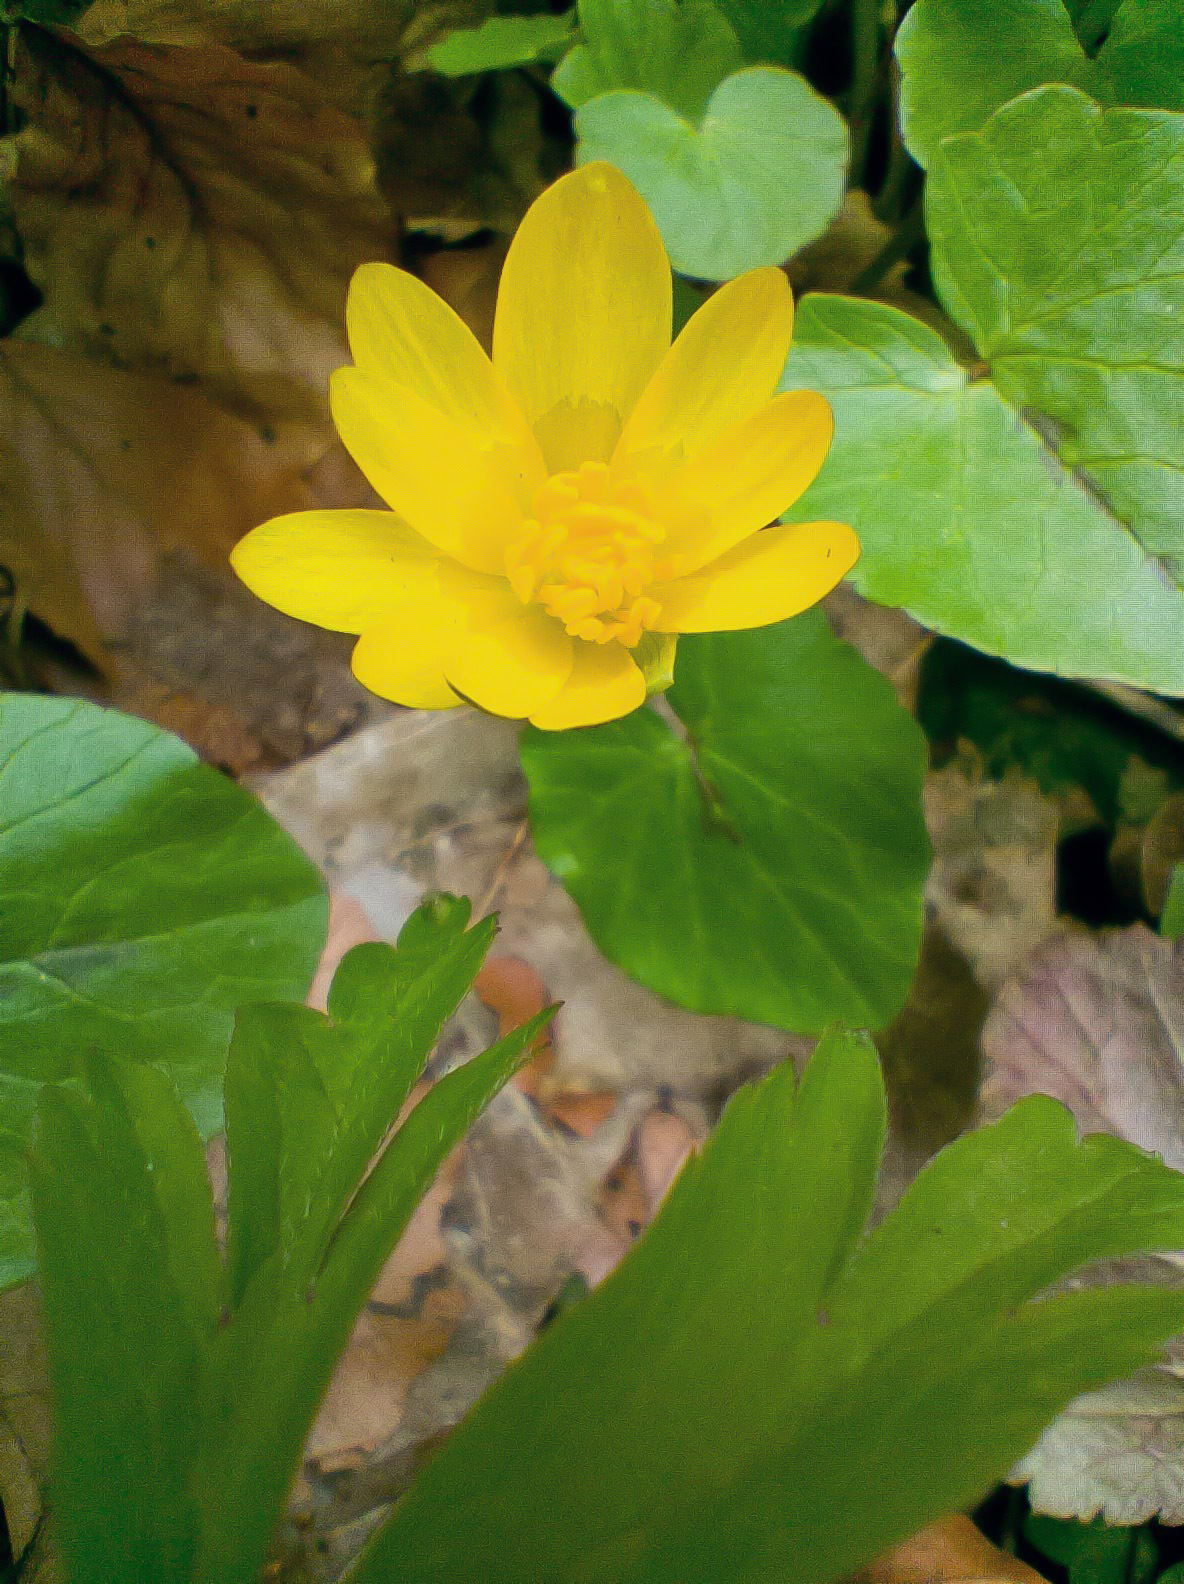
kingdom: Plantae
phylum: Tracheophyta
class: Magnoliopsida
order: Ranunculales
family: Ranunculaceae
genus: Ficaria
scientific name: Ficaria verna
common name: Lesser celandine
